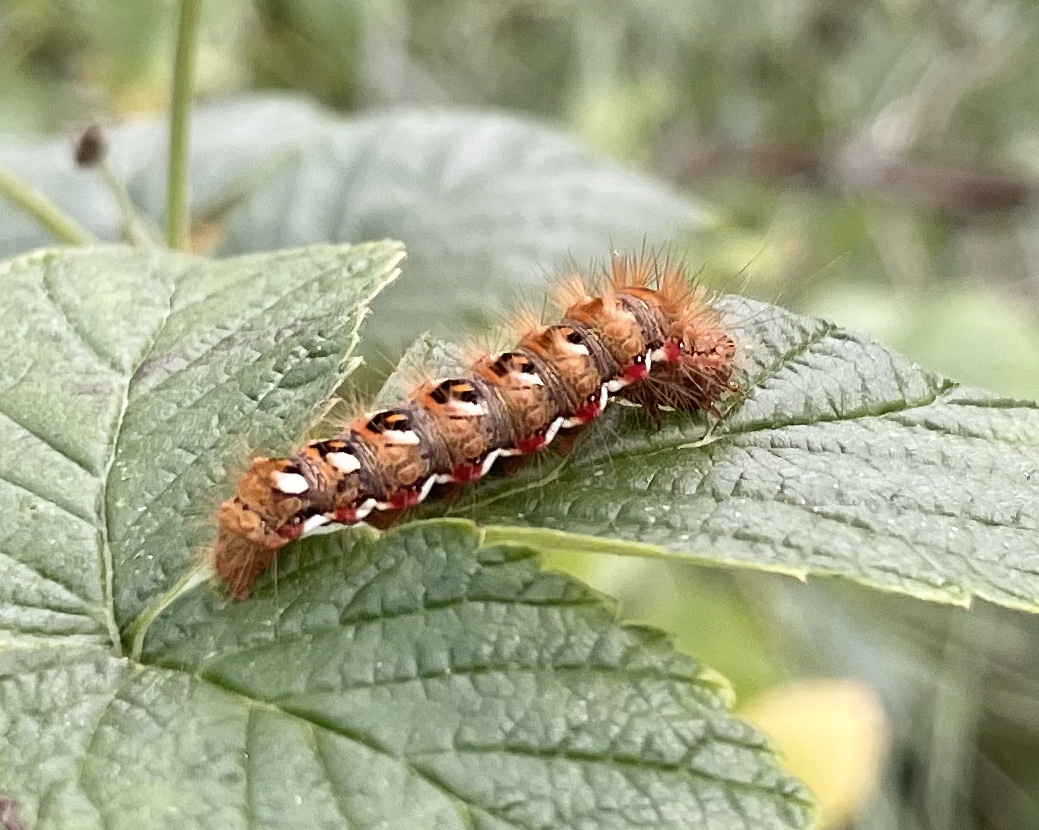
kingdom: Animalia
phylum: Arthropoda
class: Insecta
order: Lepidoptera
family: Noctuidae
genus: Acronicta
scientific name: Acronicta rumicis
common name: Knot grass
